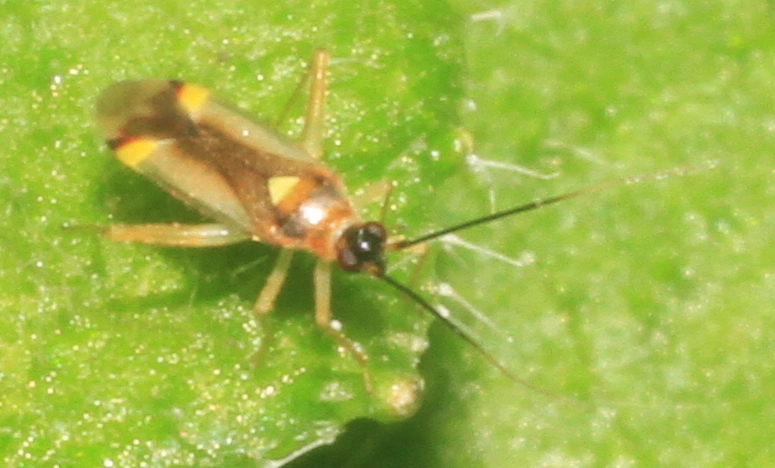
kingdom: Animalia
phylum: Arthropoda
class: Insecta
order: Hemiptera
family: Miridae
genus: Campyloneura
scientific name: Campyloneura virgula
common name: Predatory bug
